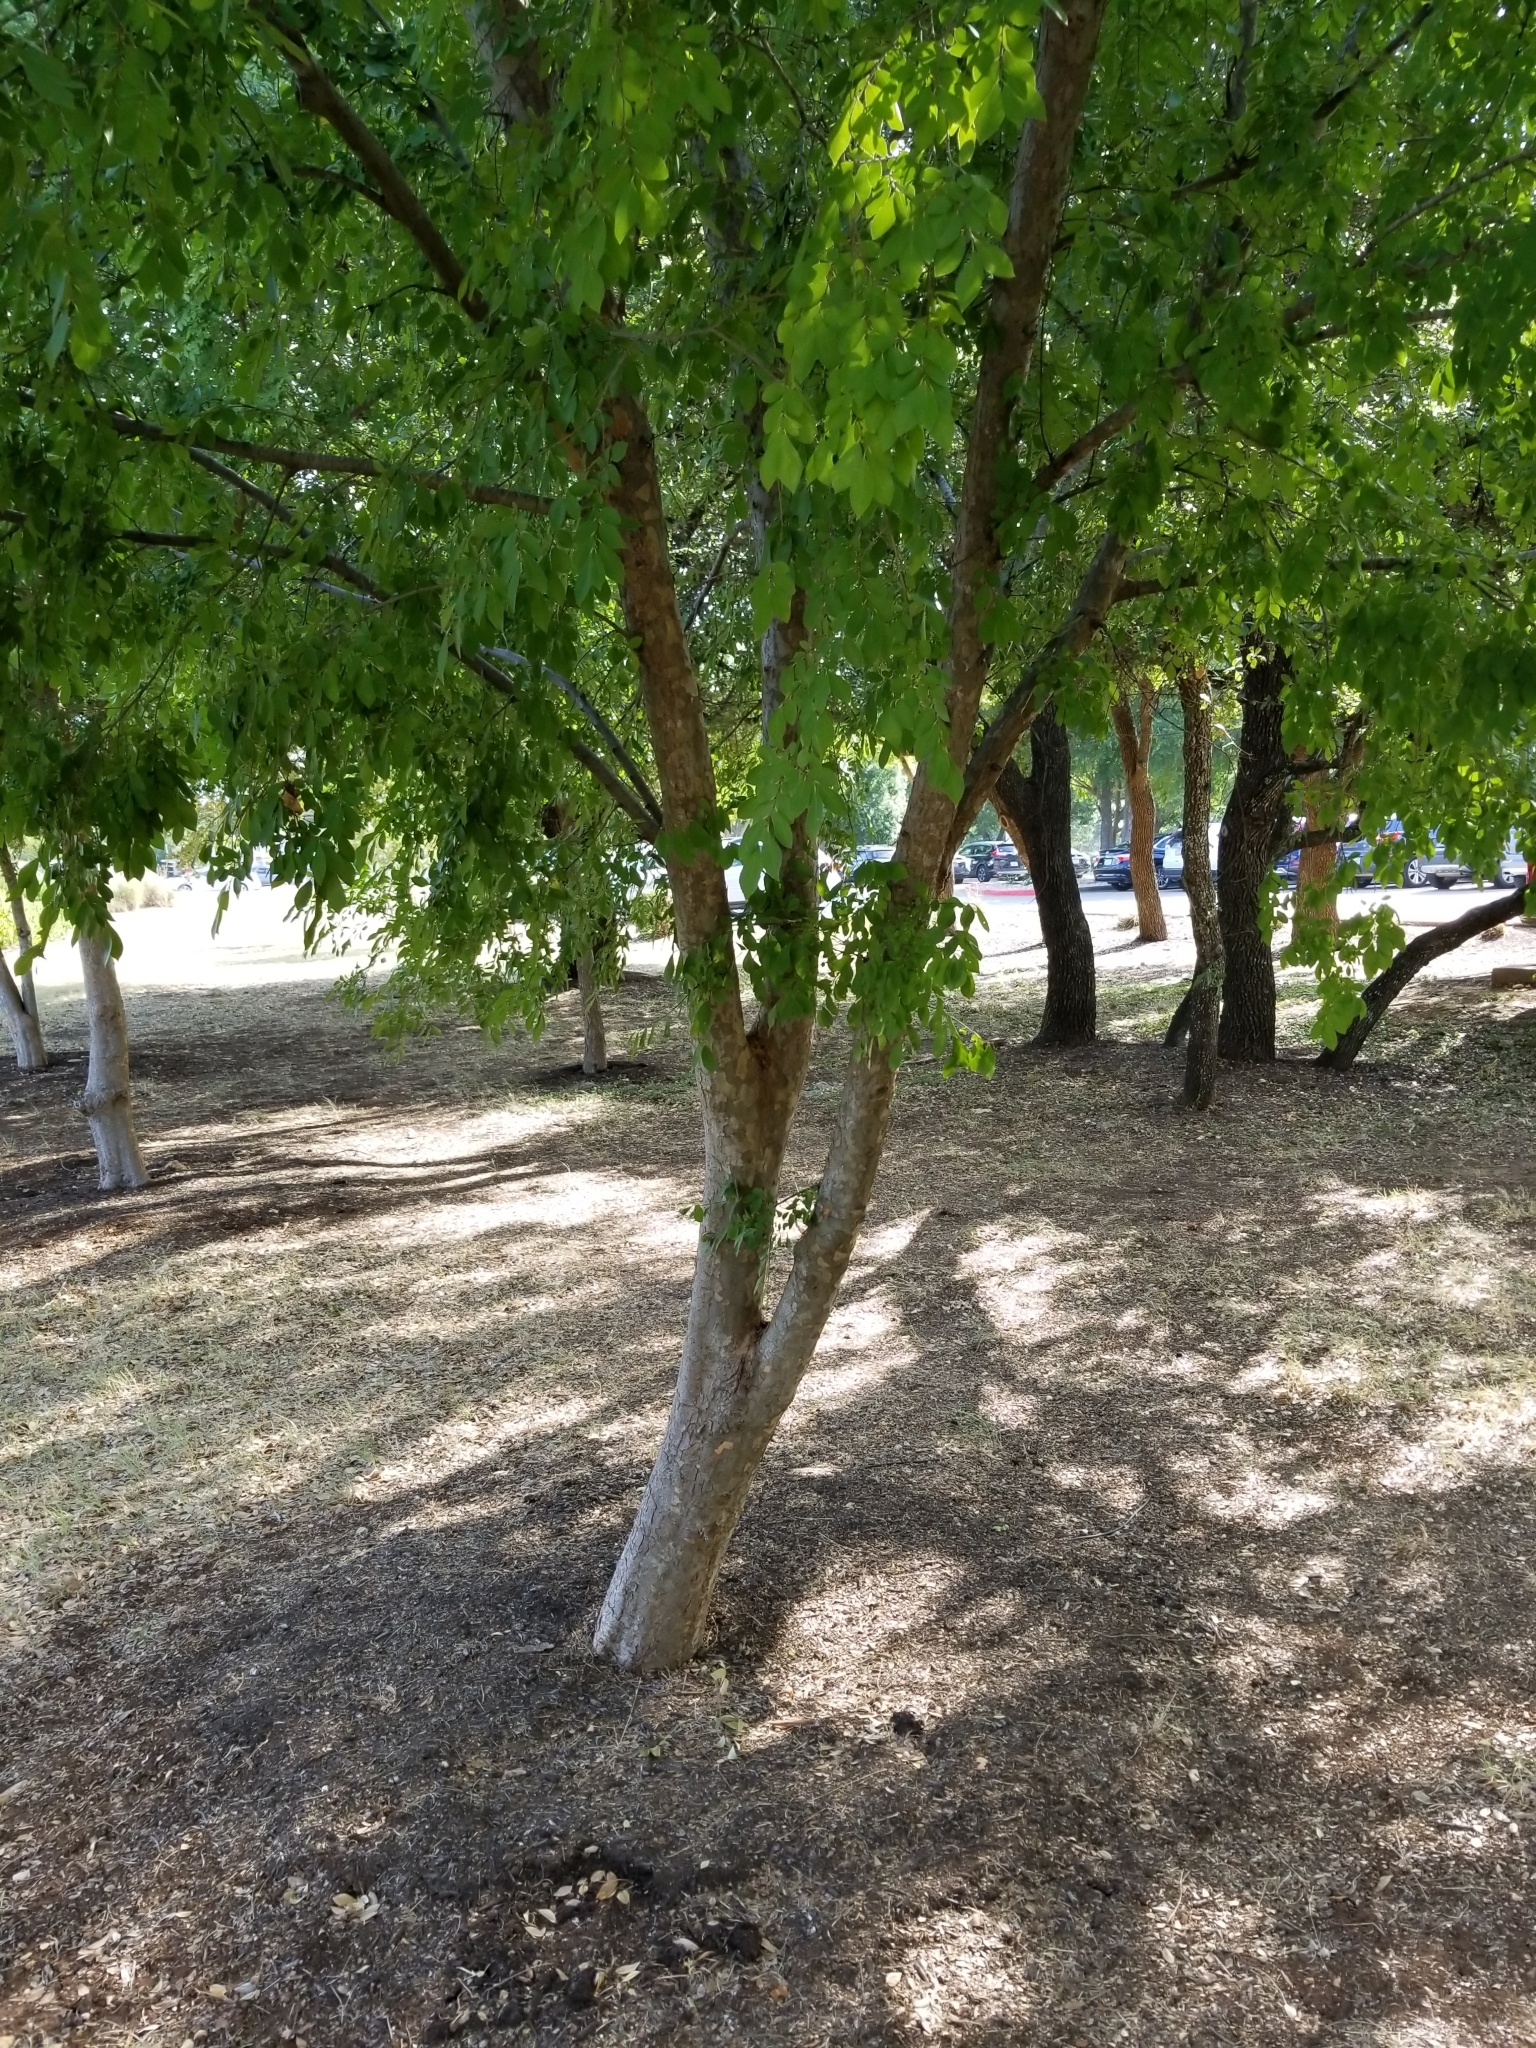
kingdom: Plantae
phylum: Tracheophyta
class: Magnoliopsida
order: Rosales
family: Ulmaceae
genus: Ulmus
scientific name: Ulmus parvifolia
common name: Chinese elm
